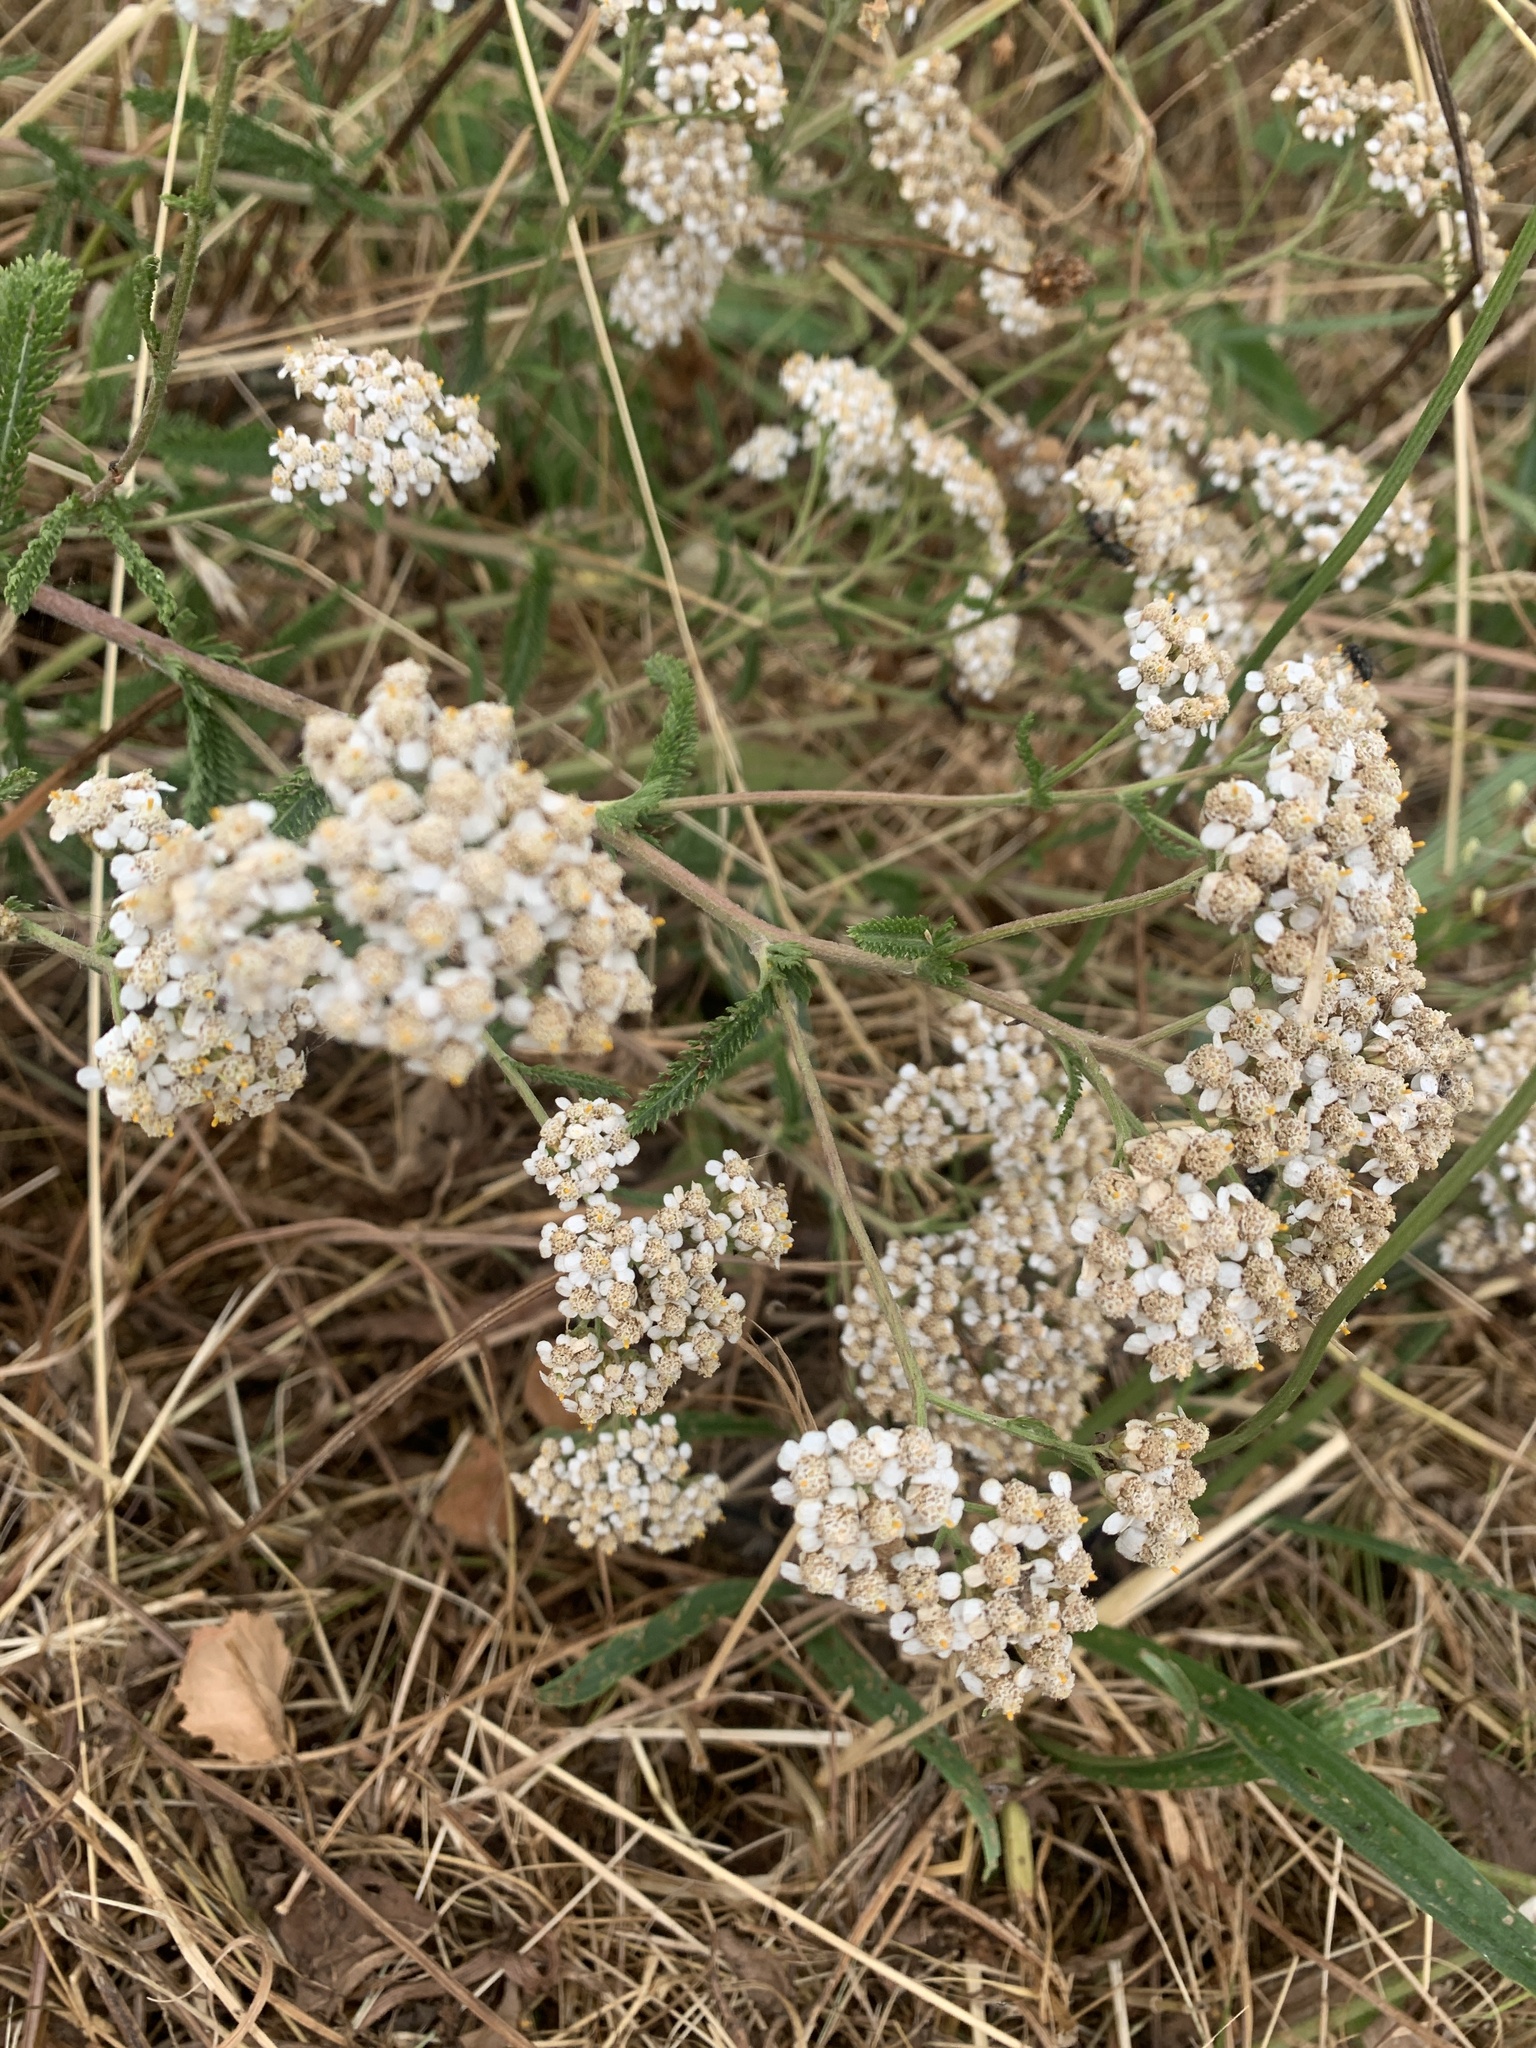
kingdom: Plantae
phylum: Tracheophyta
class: Magnoliopsida
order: Asterales
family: Asteraceae
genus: Achillea
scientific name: Achillea millefolium
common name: Yarrow
